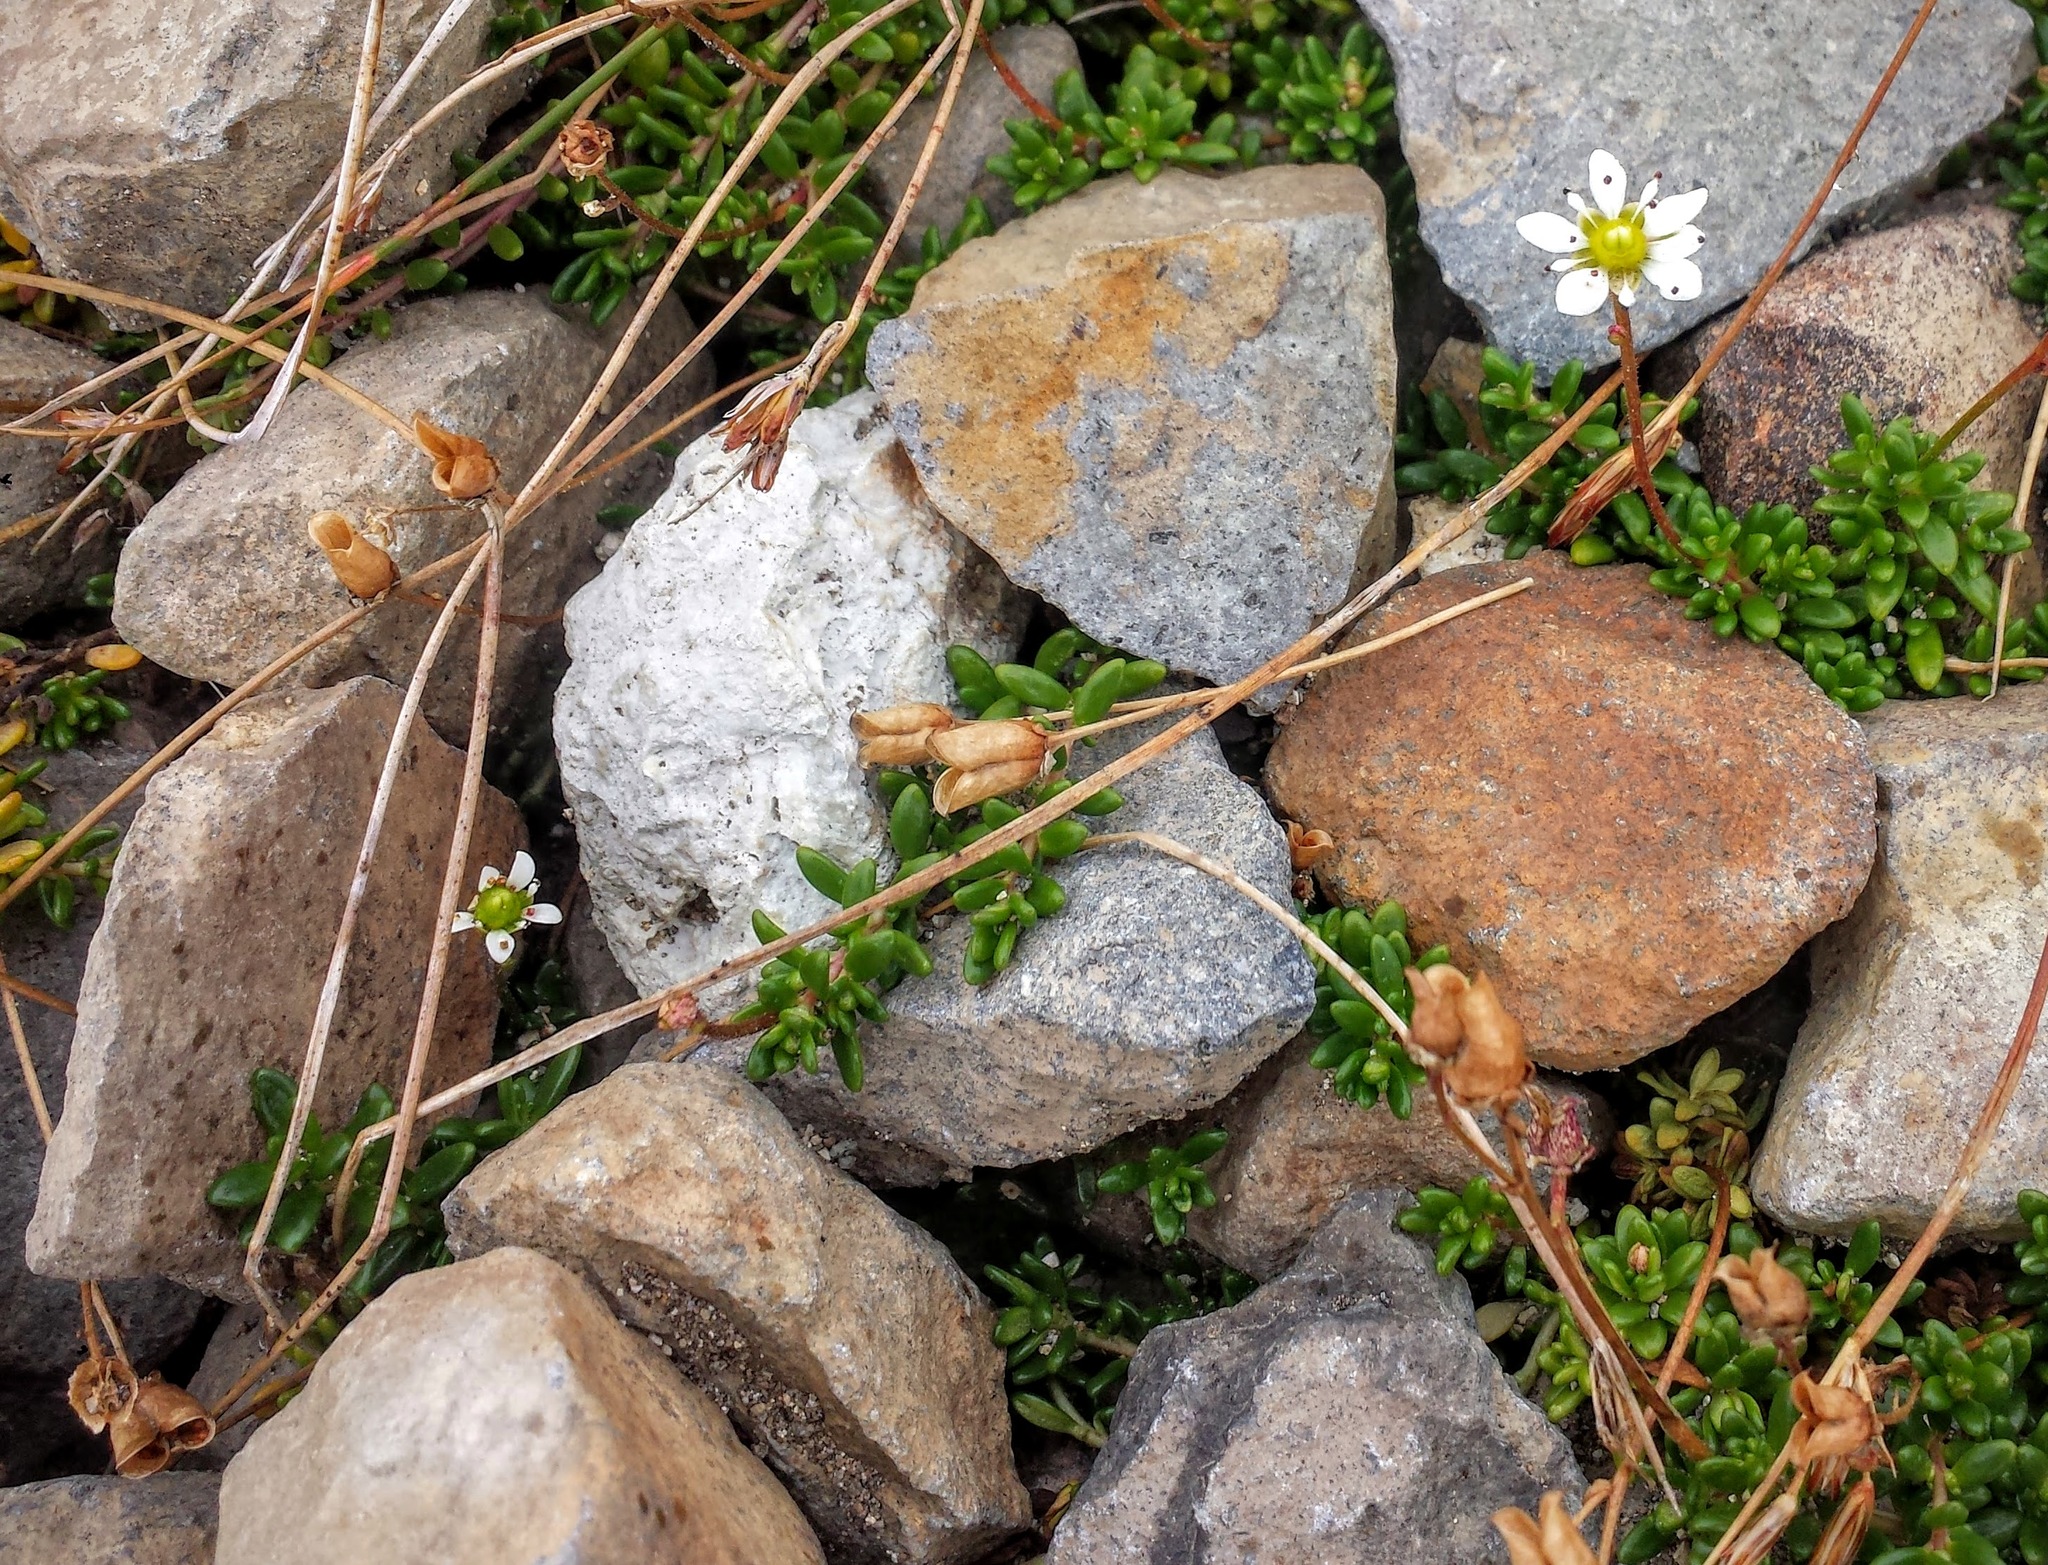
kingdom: Plantae
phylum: Tracheophyta
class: Magnoliopsida
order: Saxifragales
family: Saxifragaceae
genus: Micranthes
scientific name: Micranthes tolmiei
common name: Tolmie's saxifrage
